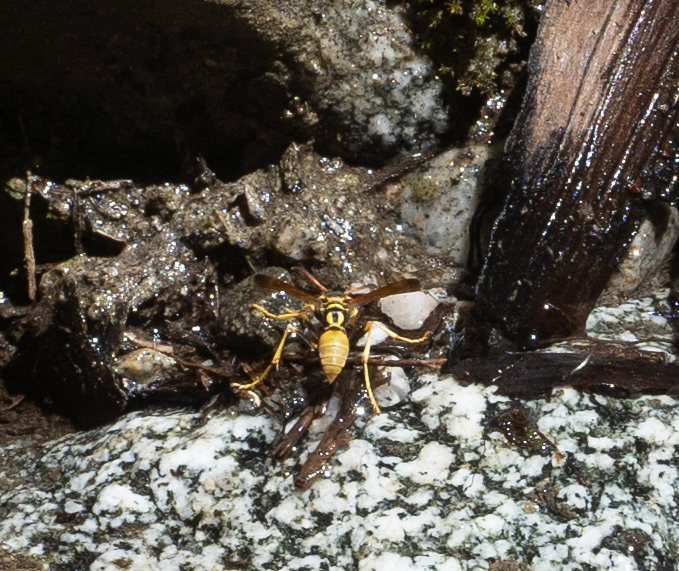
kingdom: Animalia
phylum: Arthropoda
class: Insecta
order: Hymenoptera
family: Vespidae
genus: Mischocyttarus
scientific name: Mischocyttarus flavitarsis
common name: Wasp
